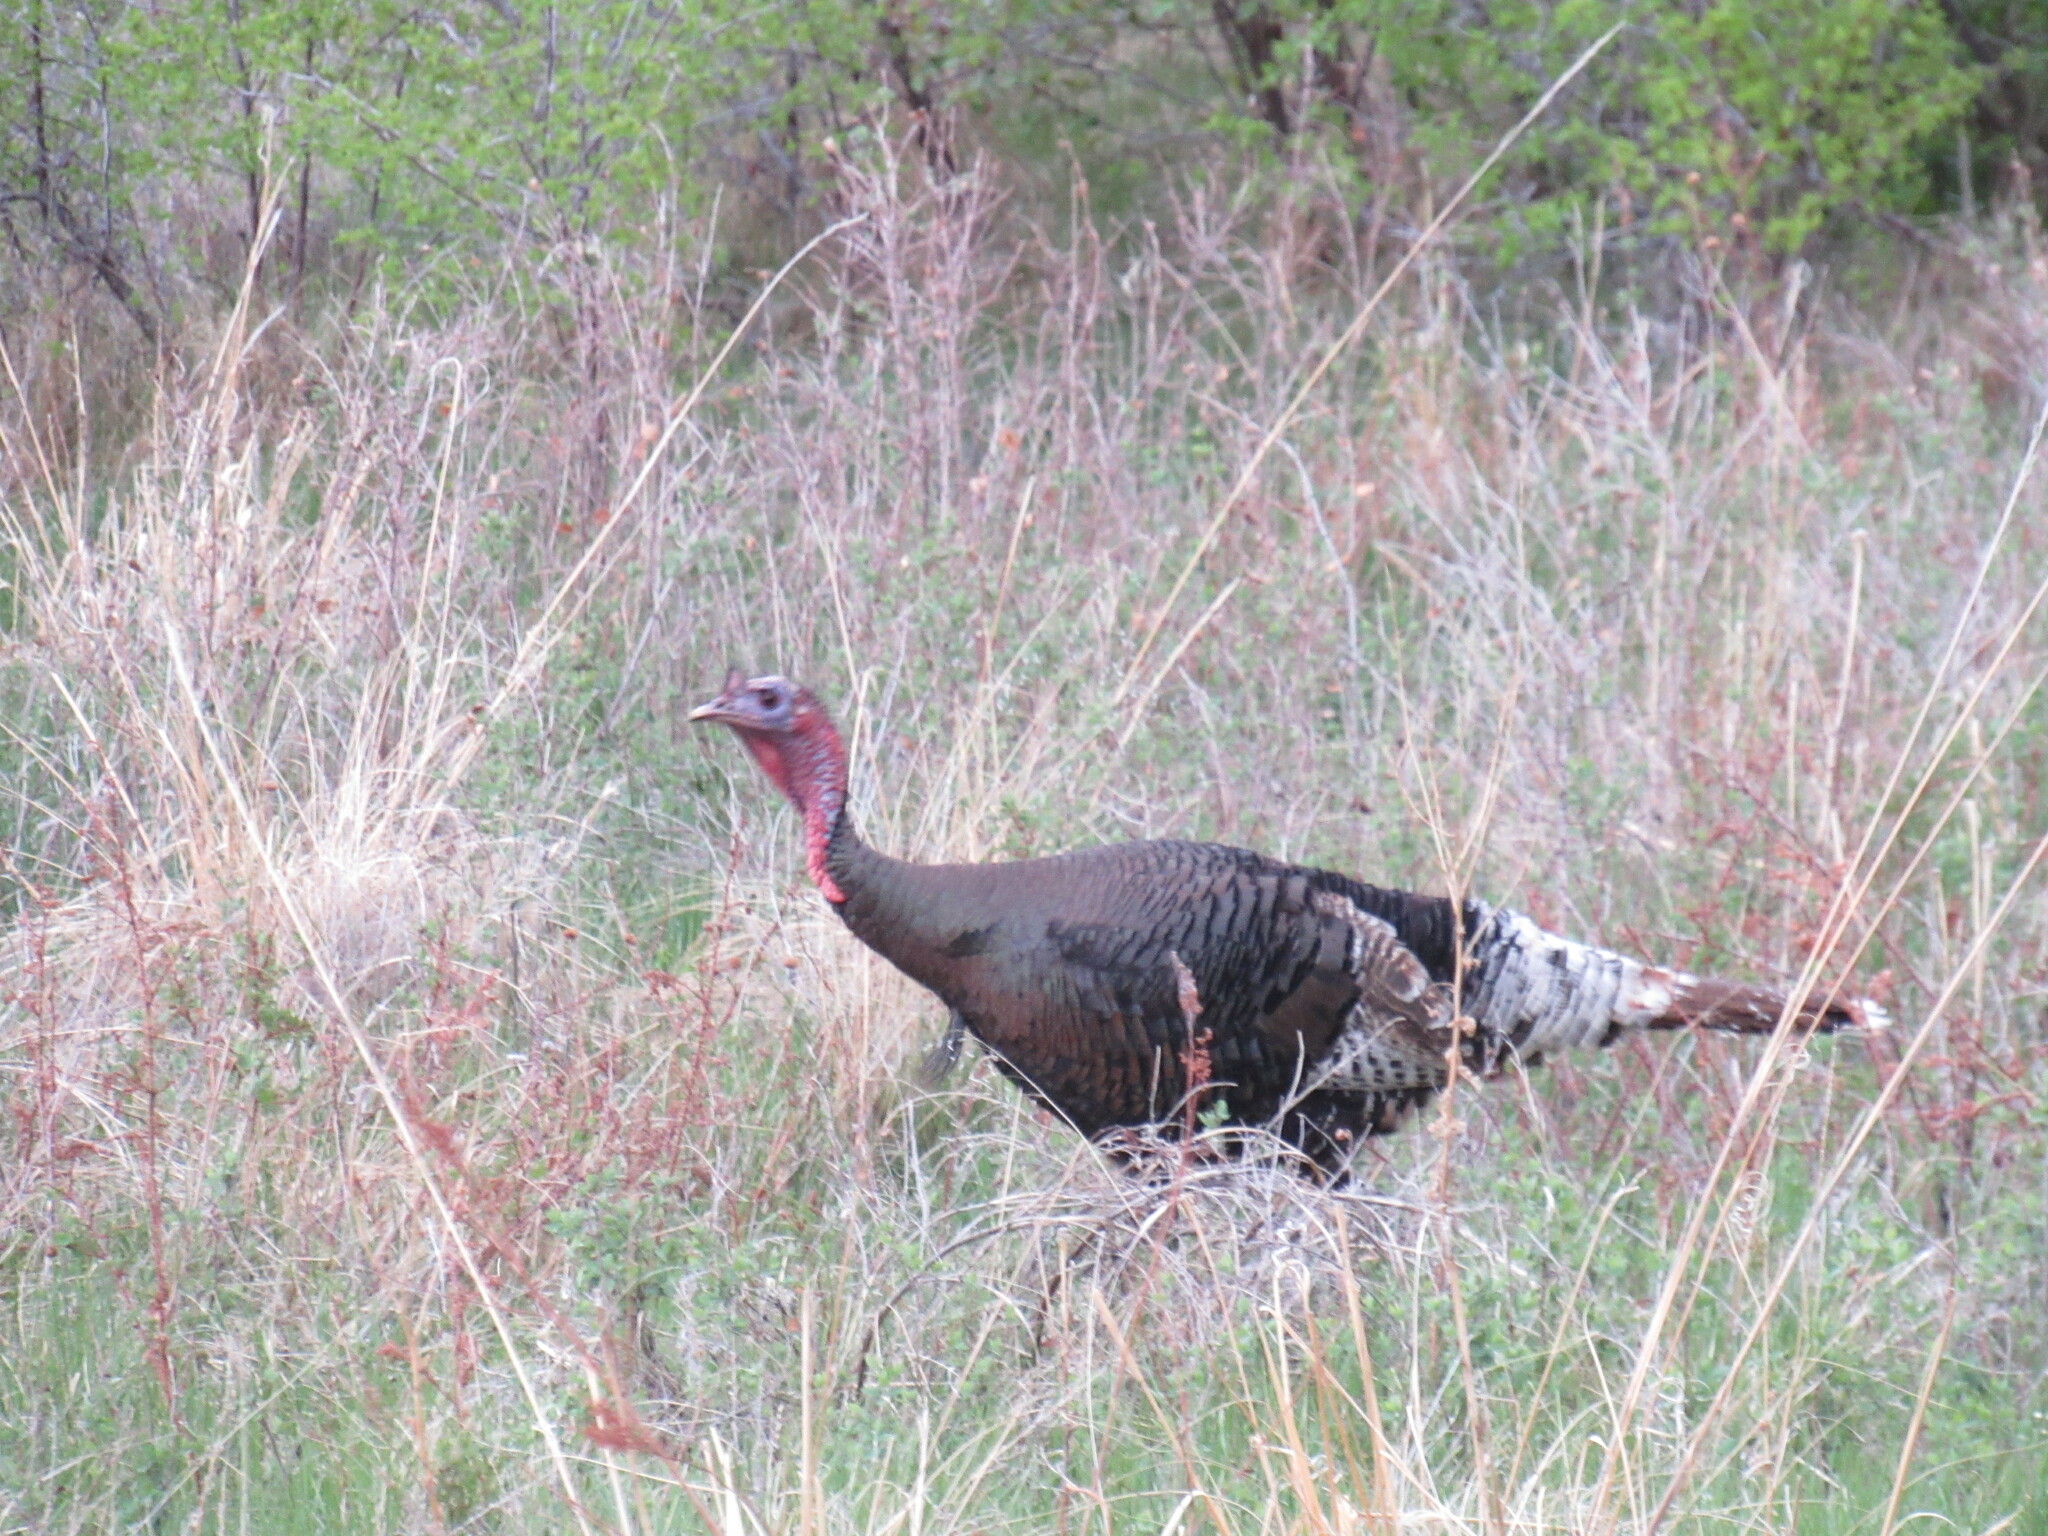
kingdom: Animalia
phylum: Chordata
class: Aves
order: Galliformes
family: Phasianidae
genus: Meleagris
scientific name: Meleagris gallopavo
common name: Wild turkey
